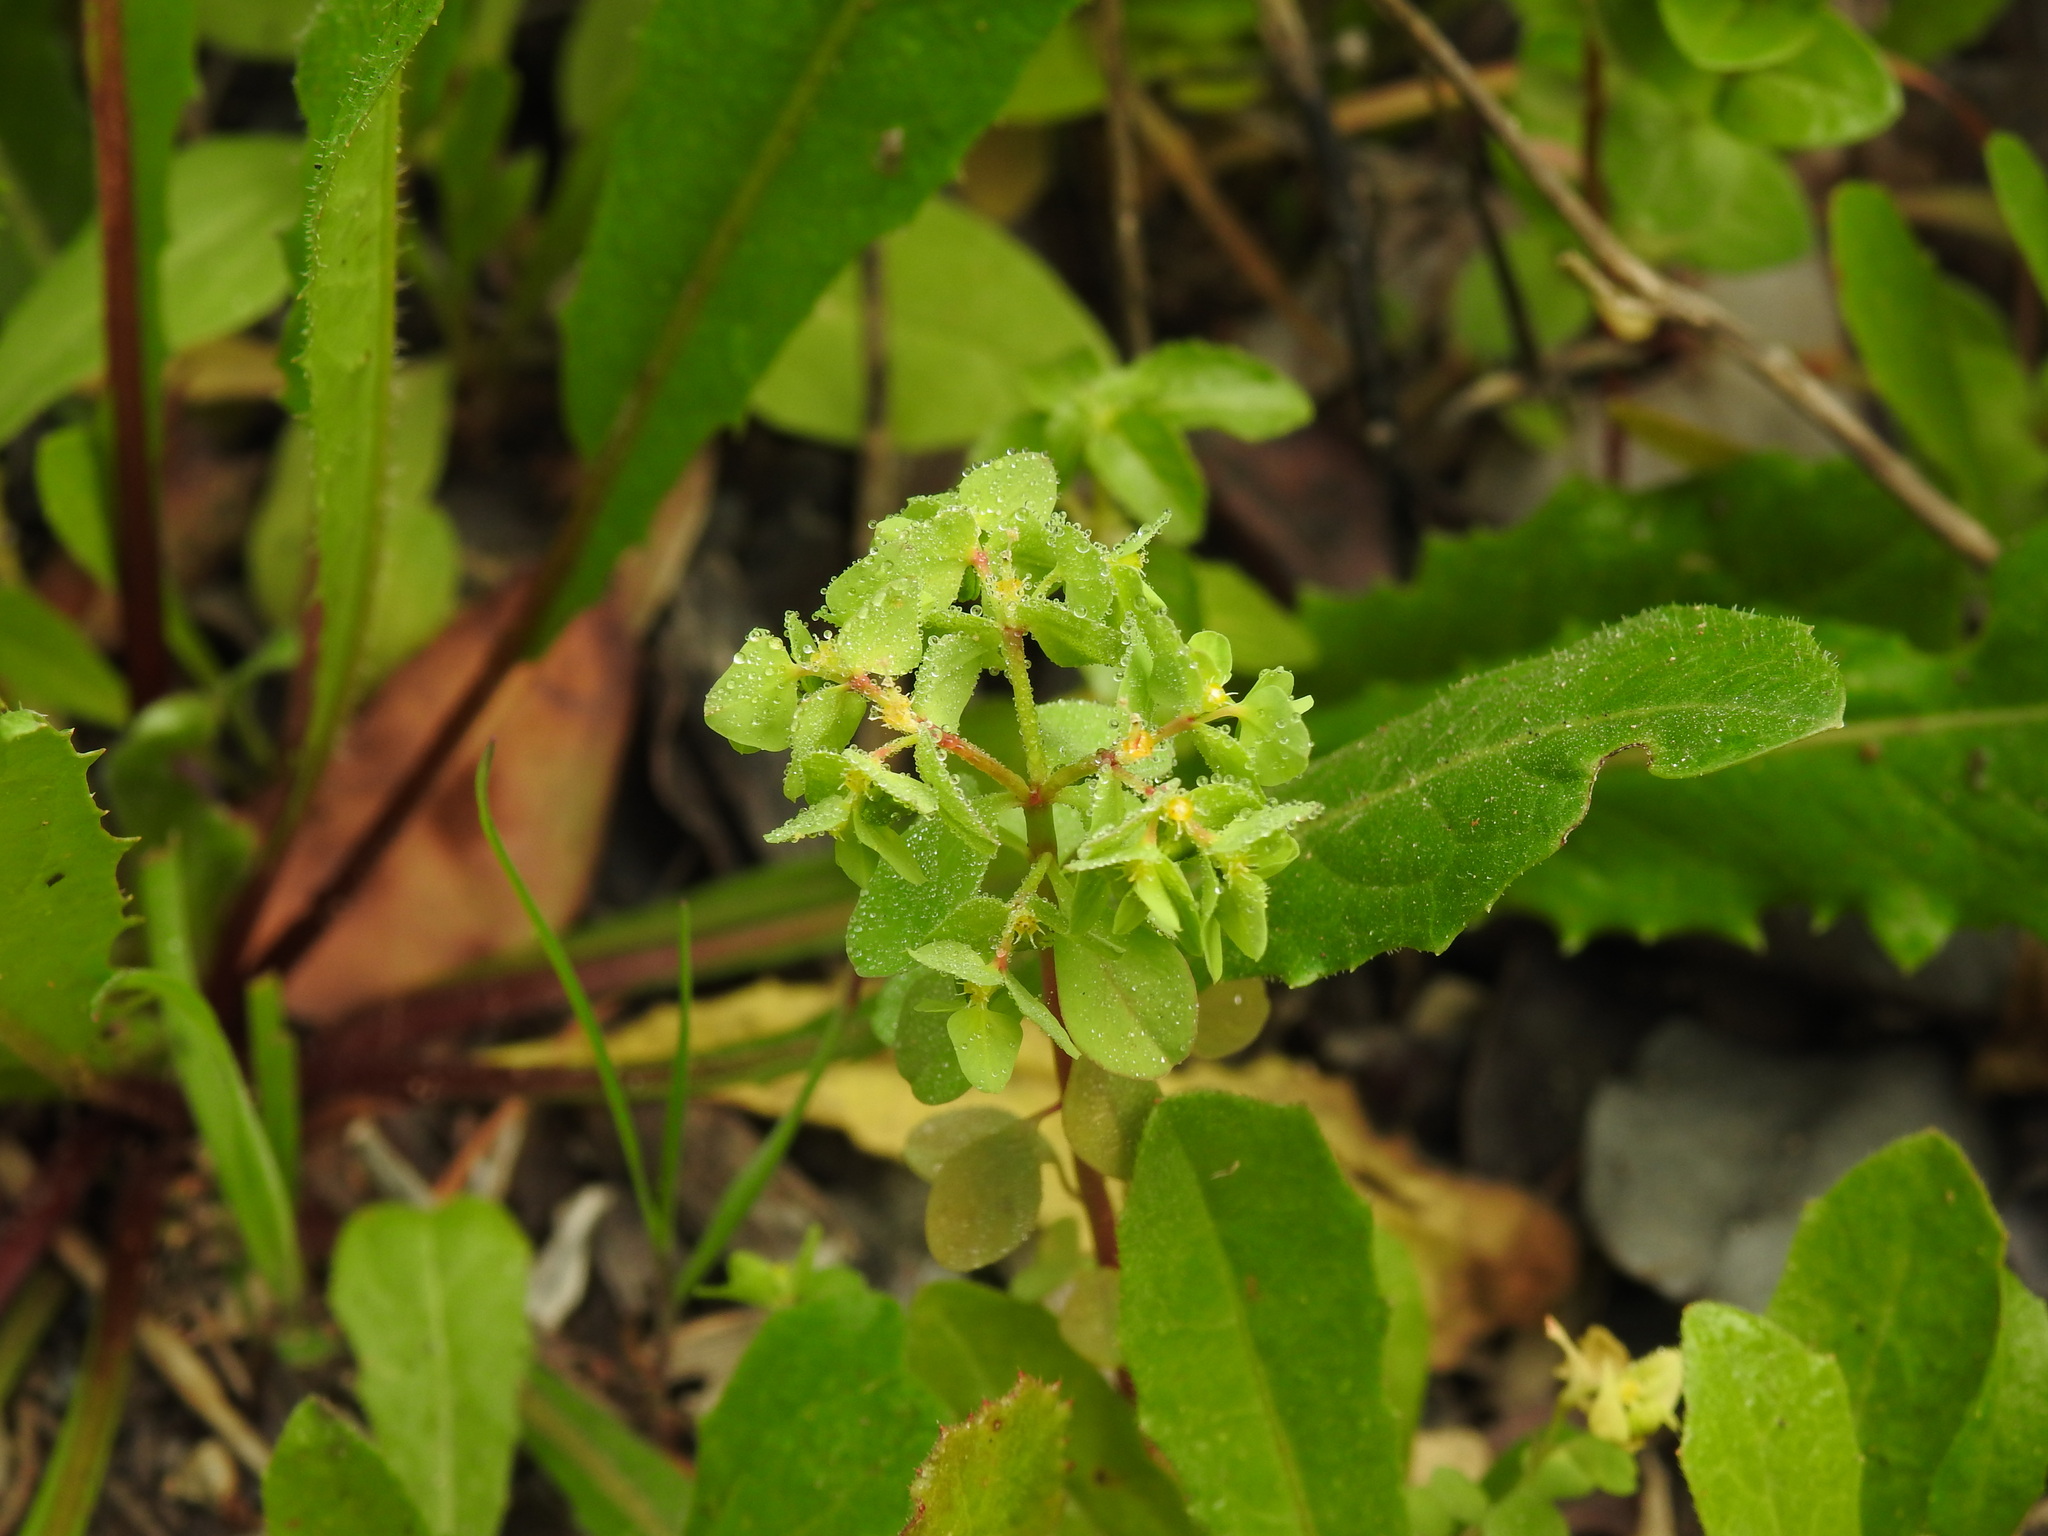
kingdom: Plantae
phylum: Tracheophyta
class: Magnoliopsida
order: Malpighiales
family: Euphorbiaceae
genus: Euphorbia
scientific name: Euphorbia peplus
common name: Petty spurge
